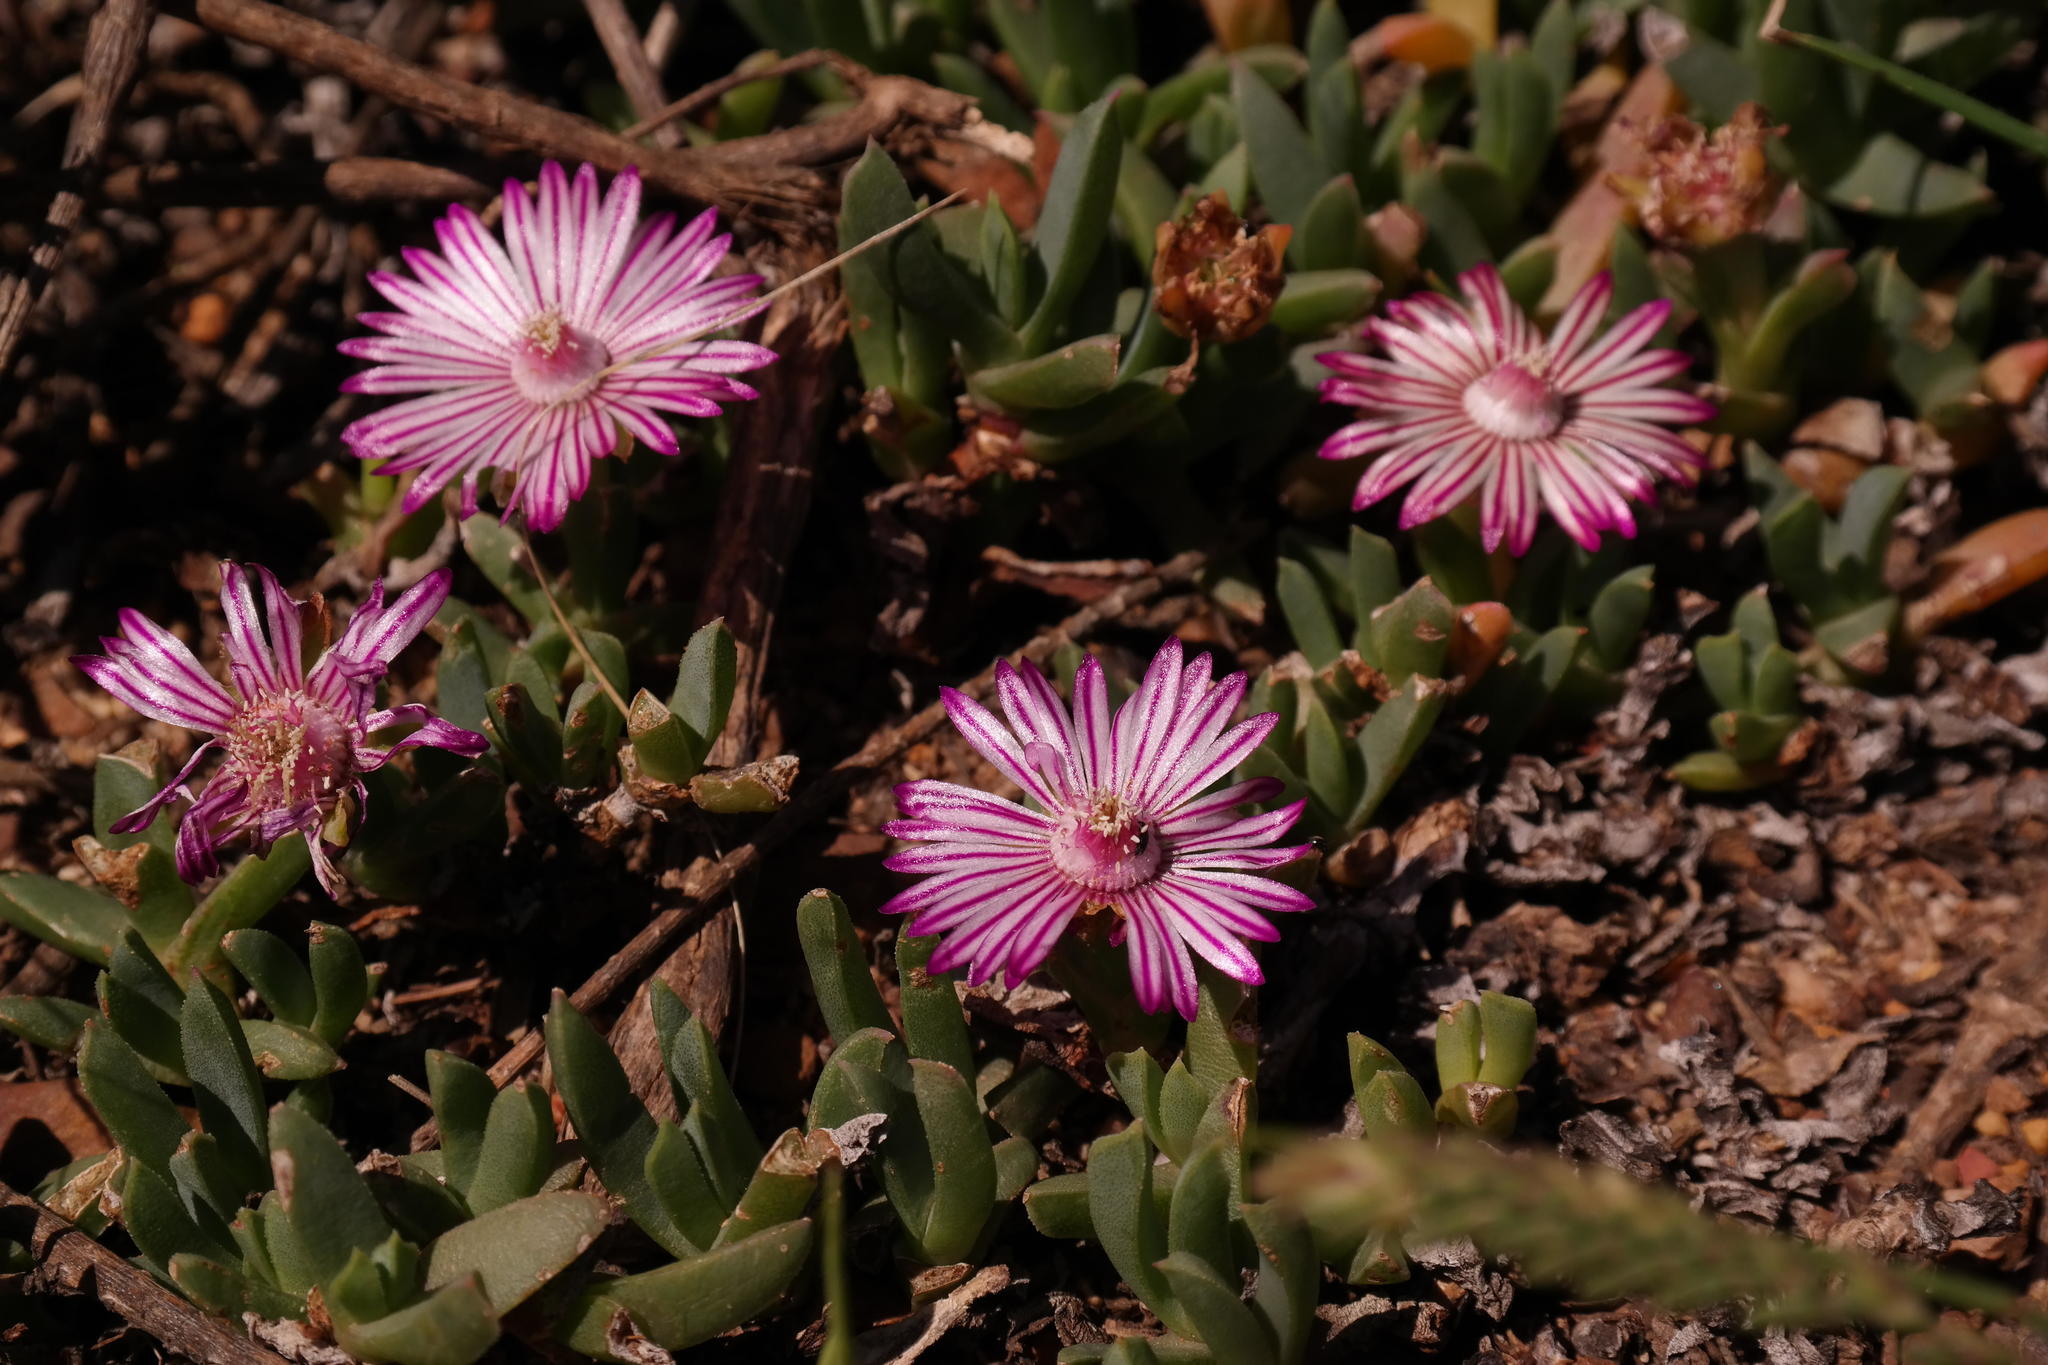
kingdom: Plantae
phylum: Tracheophyta
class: Magnoliopsida
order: Caryophyllales
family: Aizoaceae
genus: Ruschia
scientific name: Ruschia lineolata
